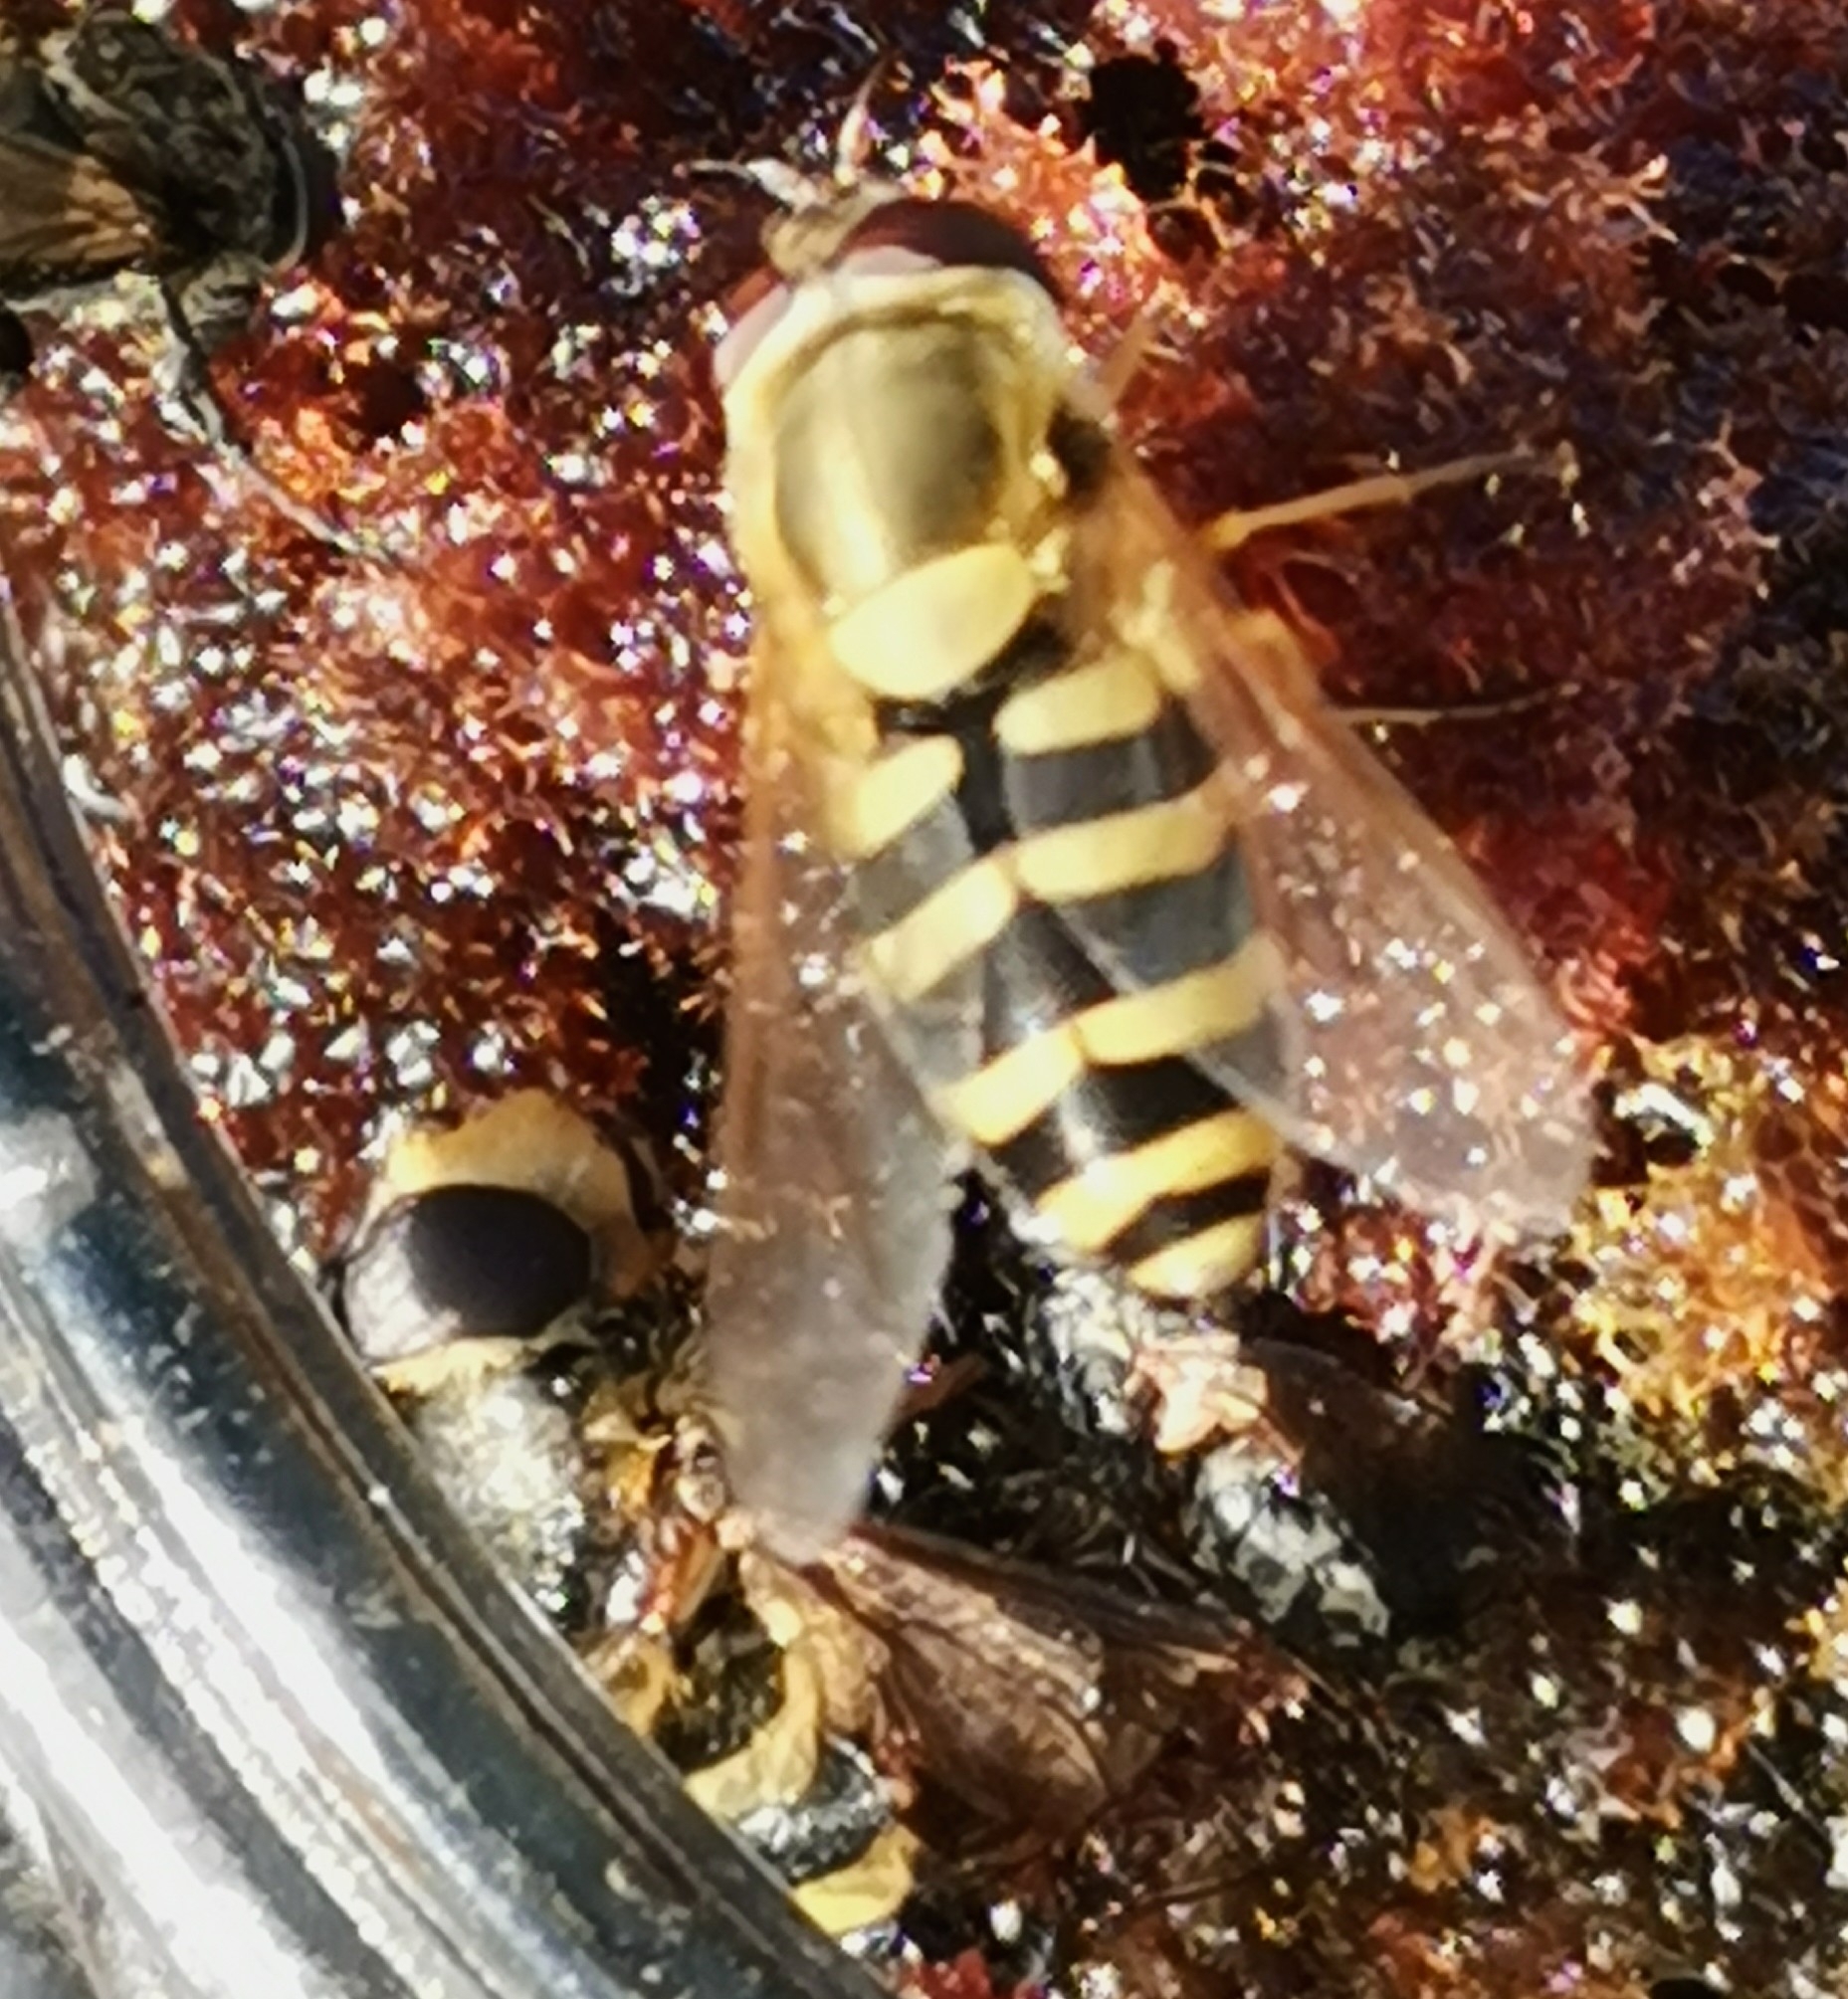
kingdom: Animalia
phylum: Arthropoda
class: Insecta
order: Diptera
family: Syrphidae
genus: Syrphus
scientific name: Syrphus
